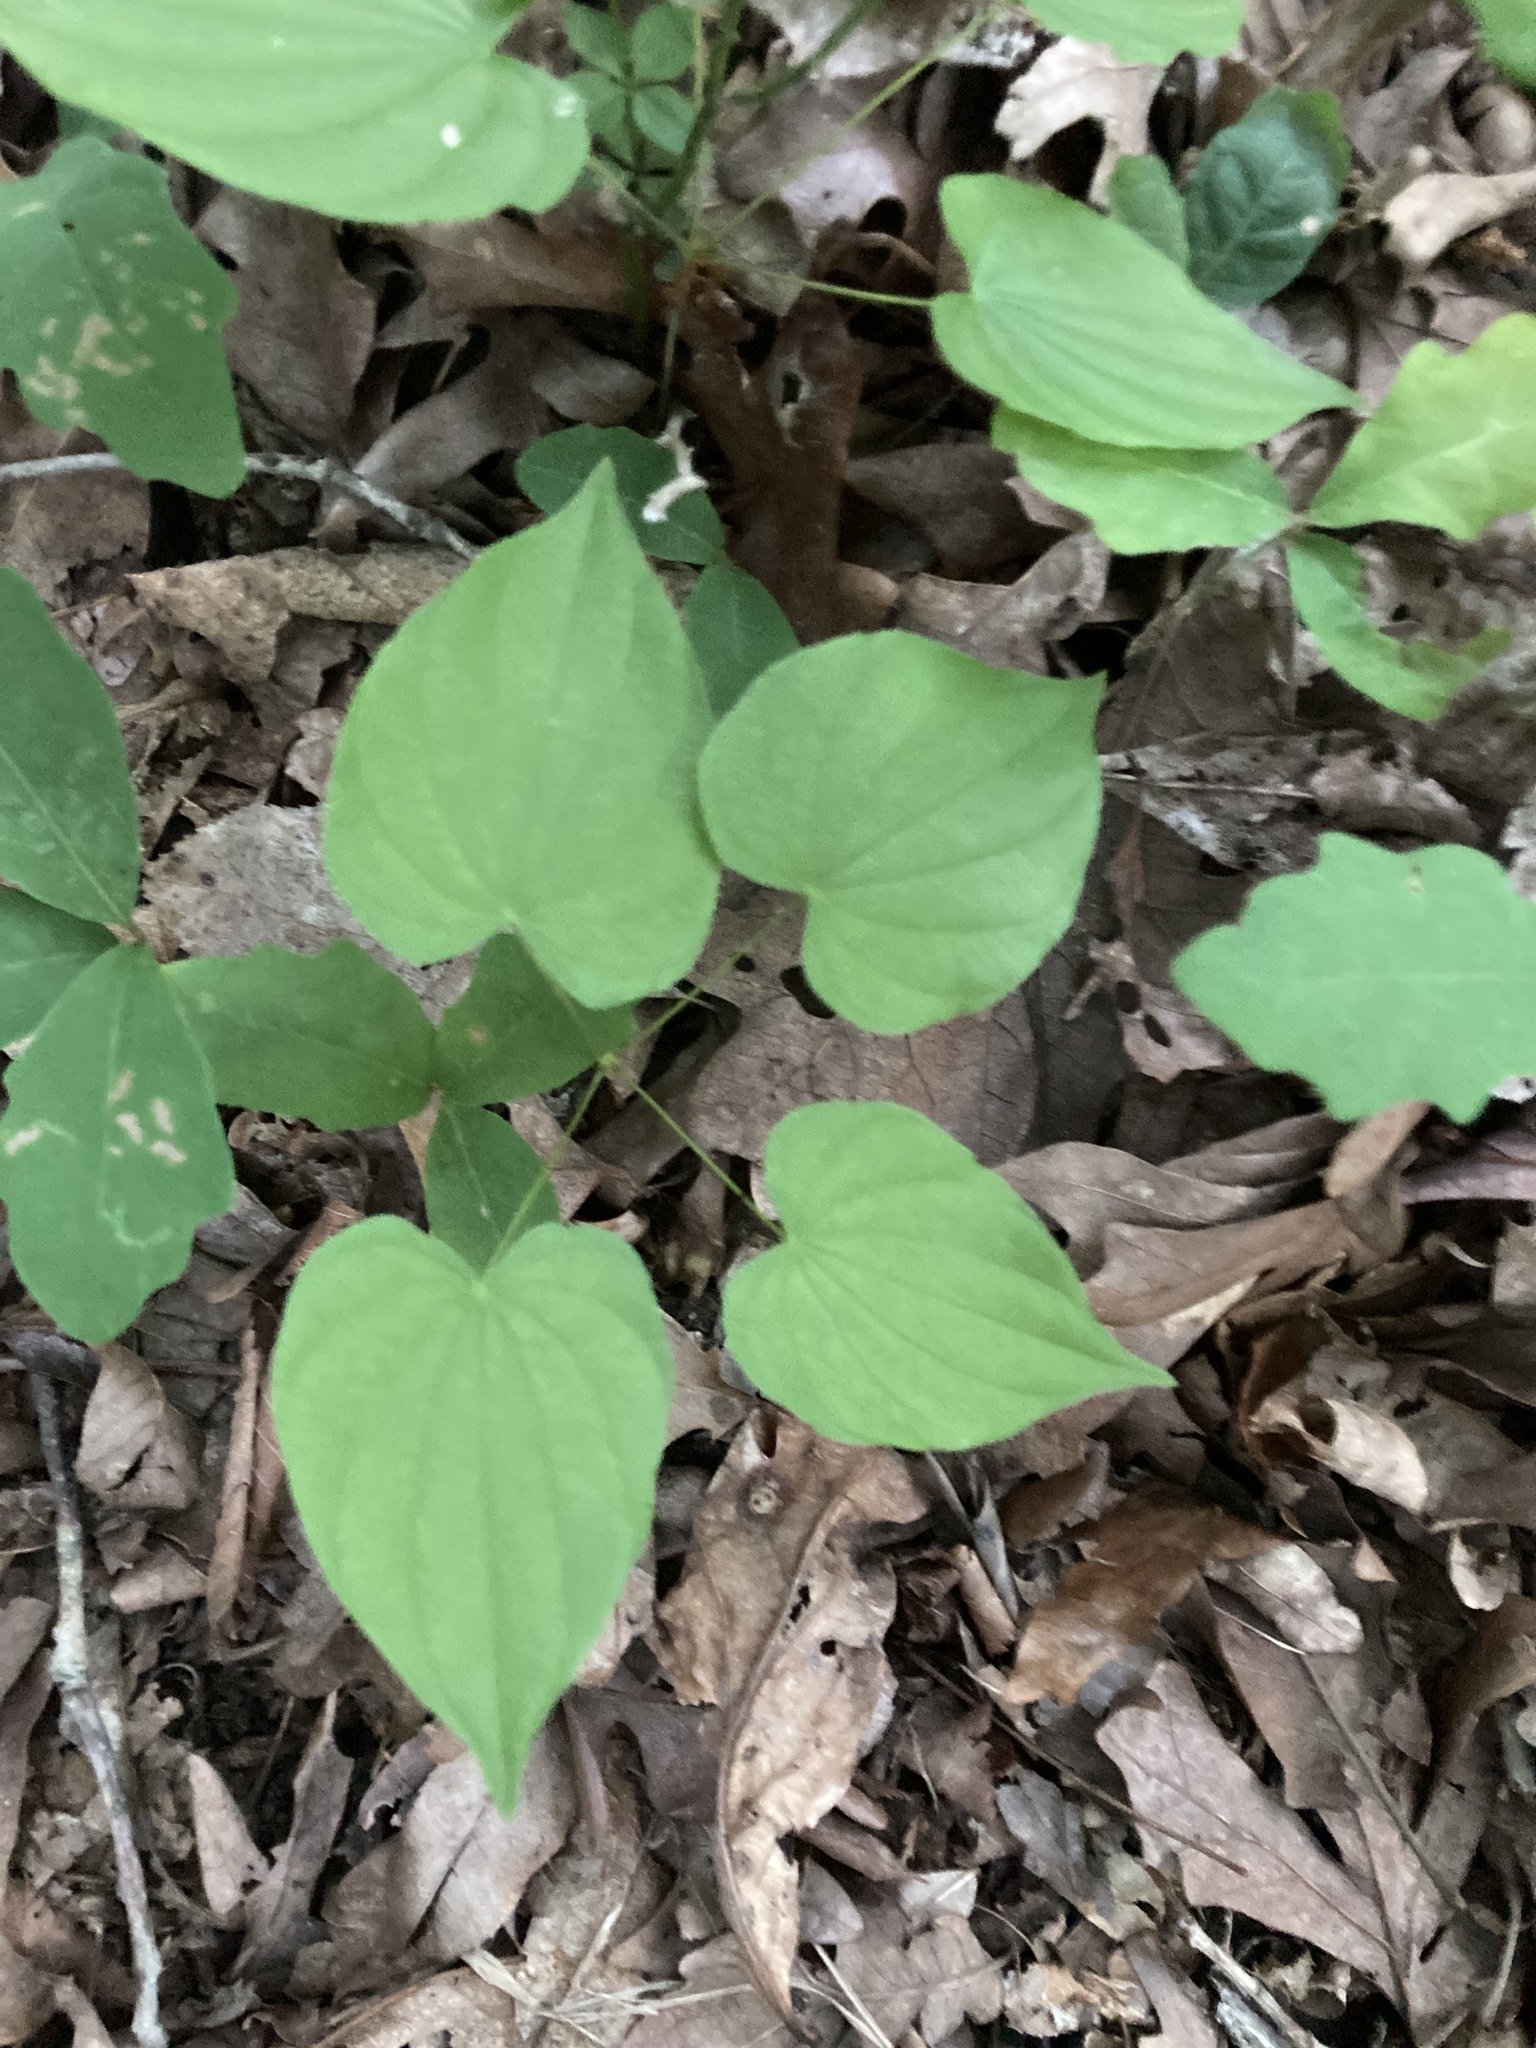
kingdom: Plantae
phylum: Tracheophyta
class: Liliopsida
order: Dioscoreales
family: Dioscoreaceae
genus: Dioscorea
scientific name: Dioscorea villosa
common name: Wild yam
